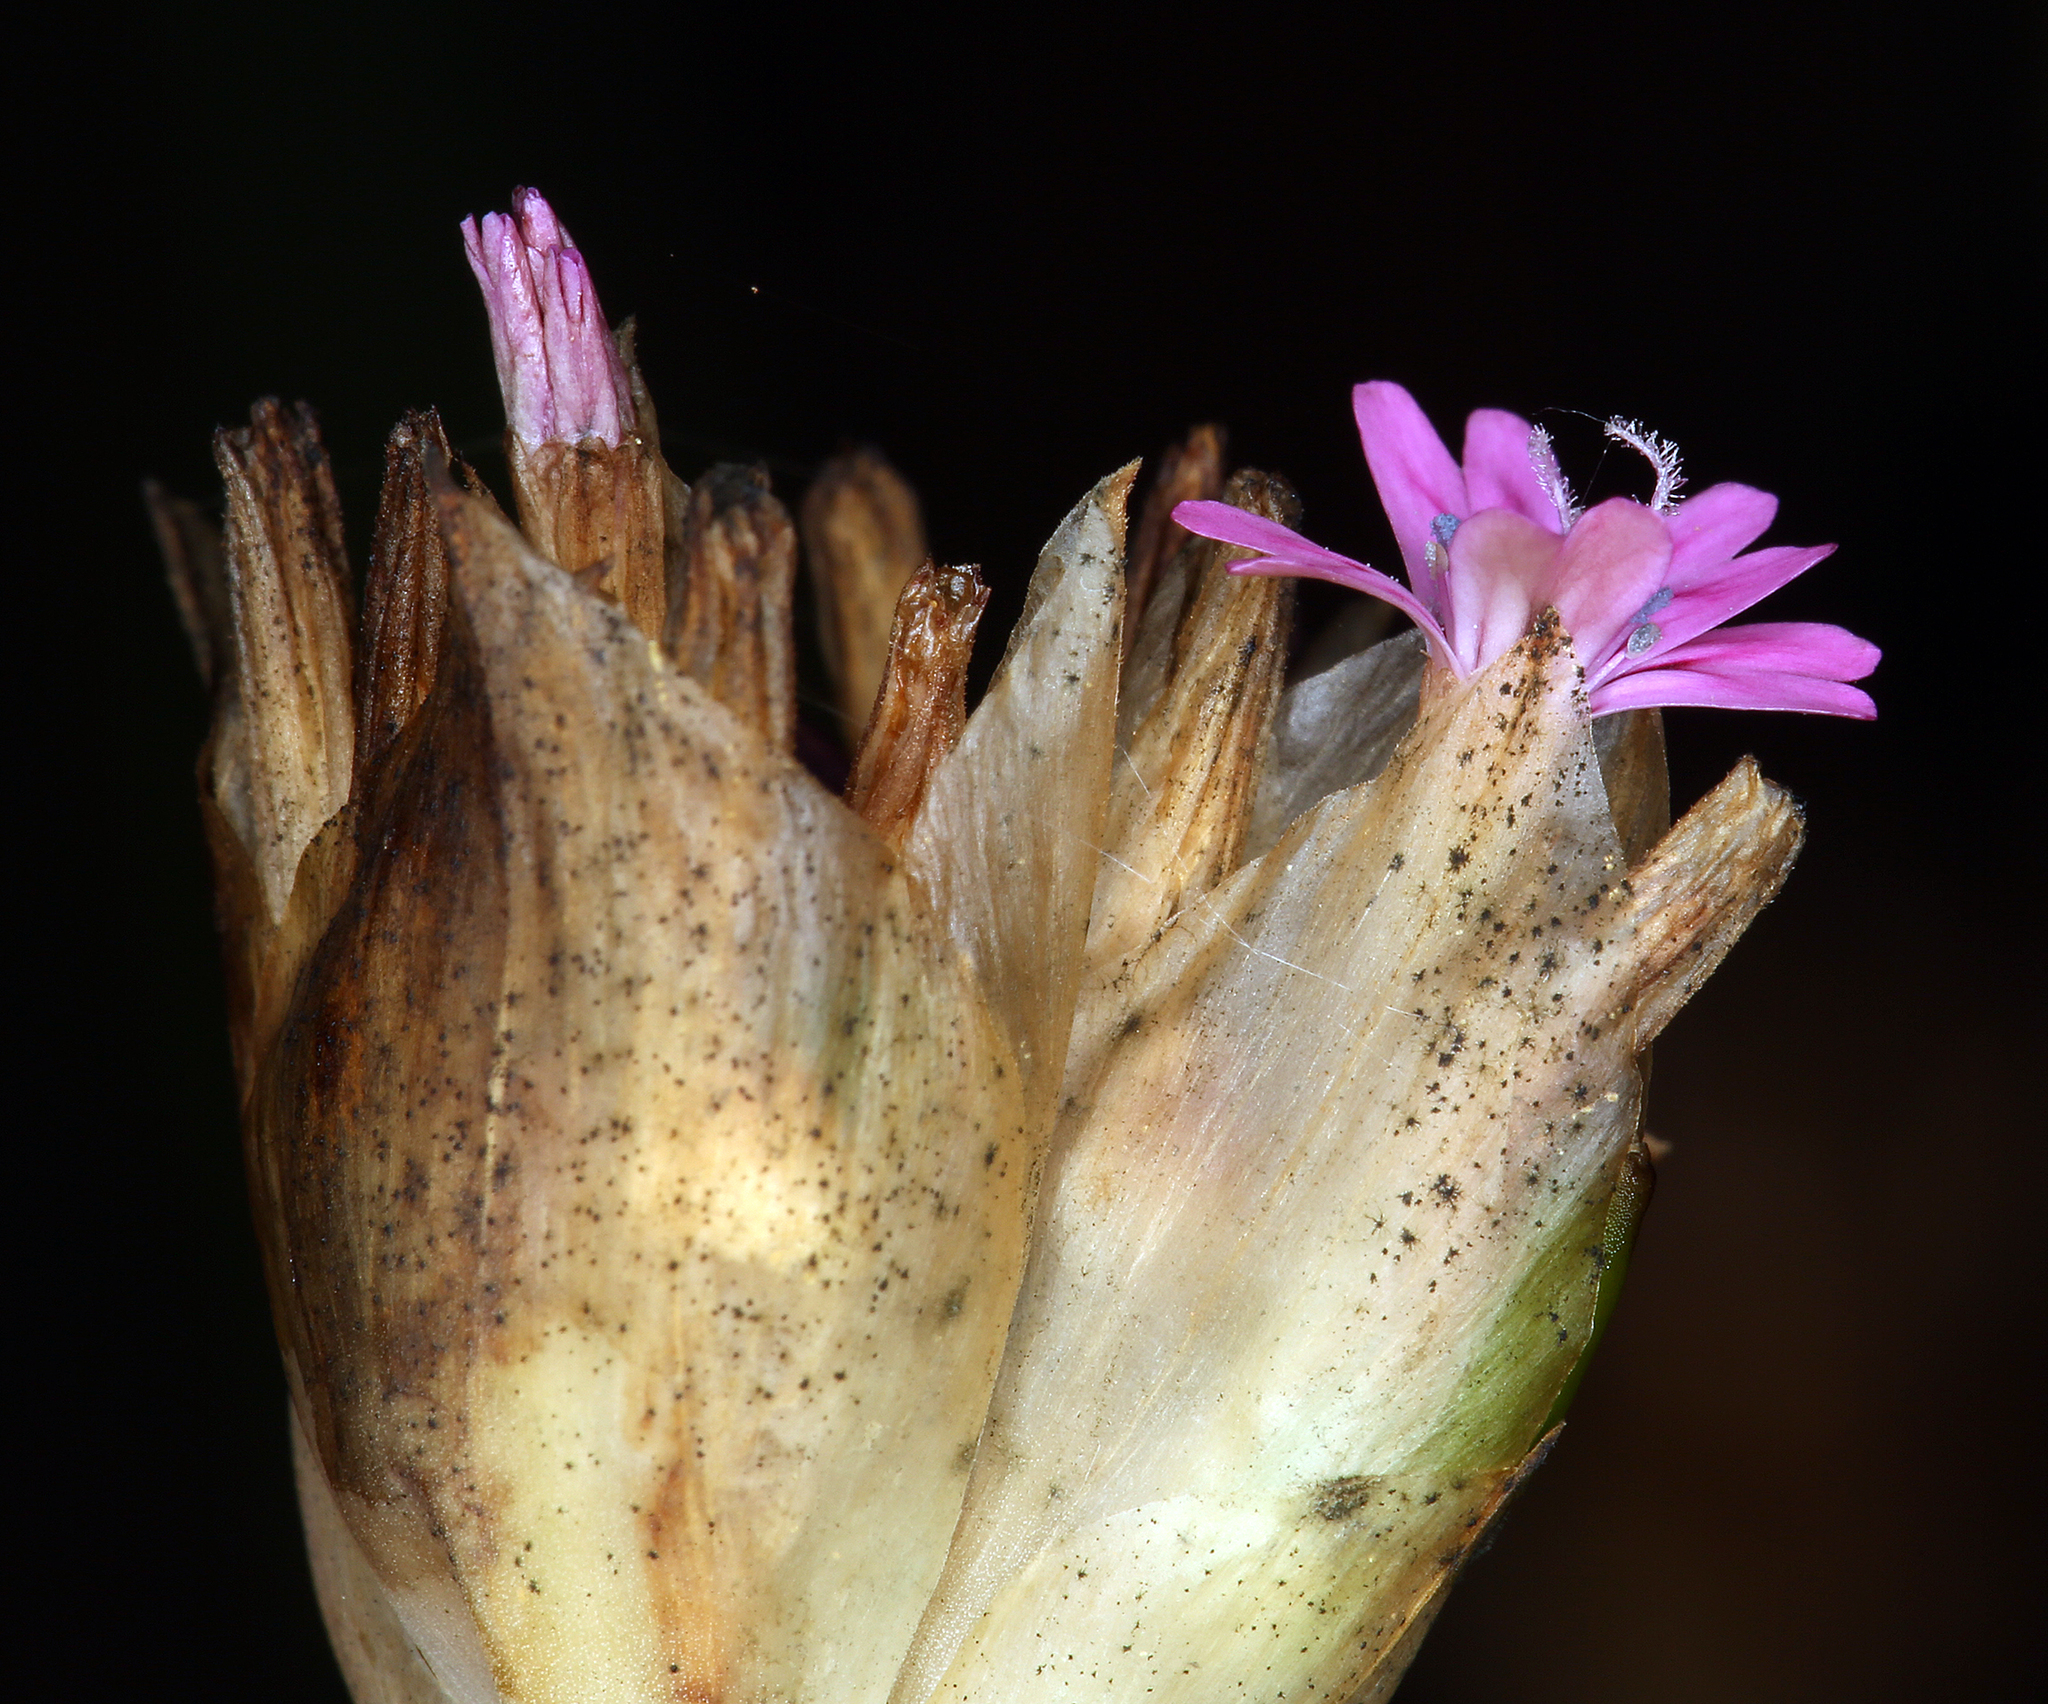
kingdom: Plantae
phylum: Tracheophyta
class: Magnoliopsida
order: Caryophyllales
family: Caryophyllaceae
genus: Petrorhagia
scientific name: Petrorhagia dubia
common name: Hairypink
